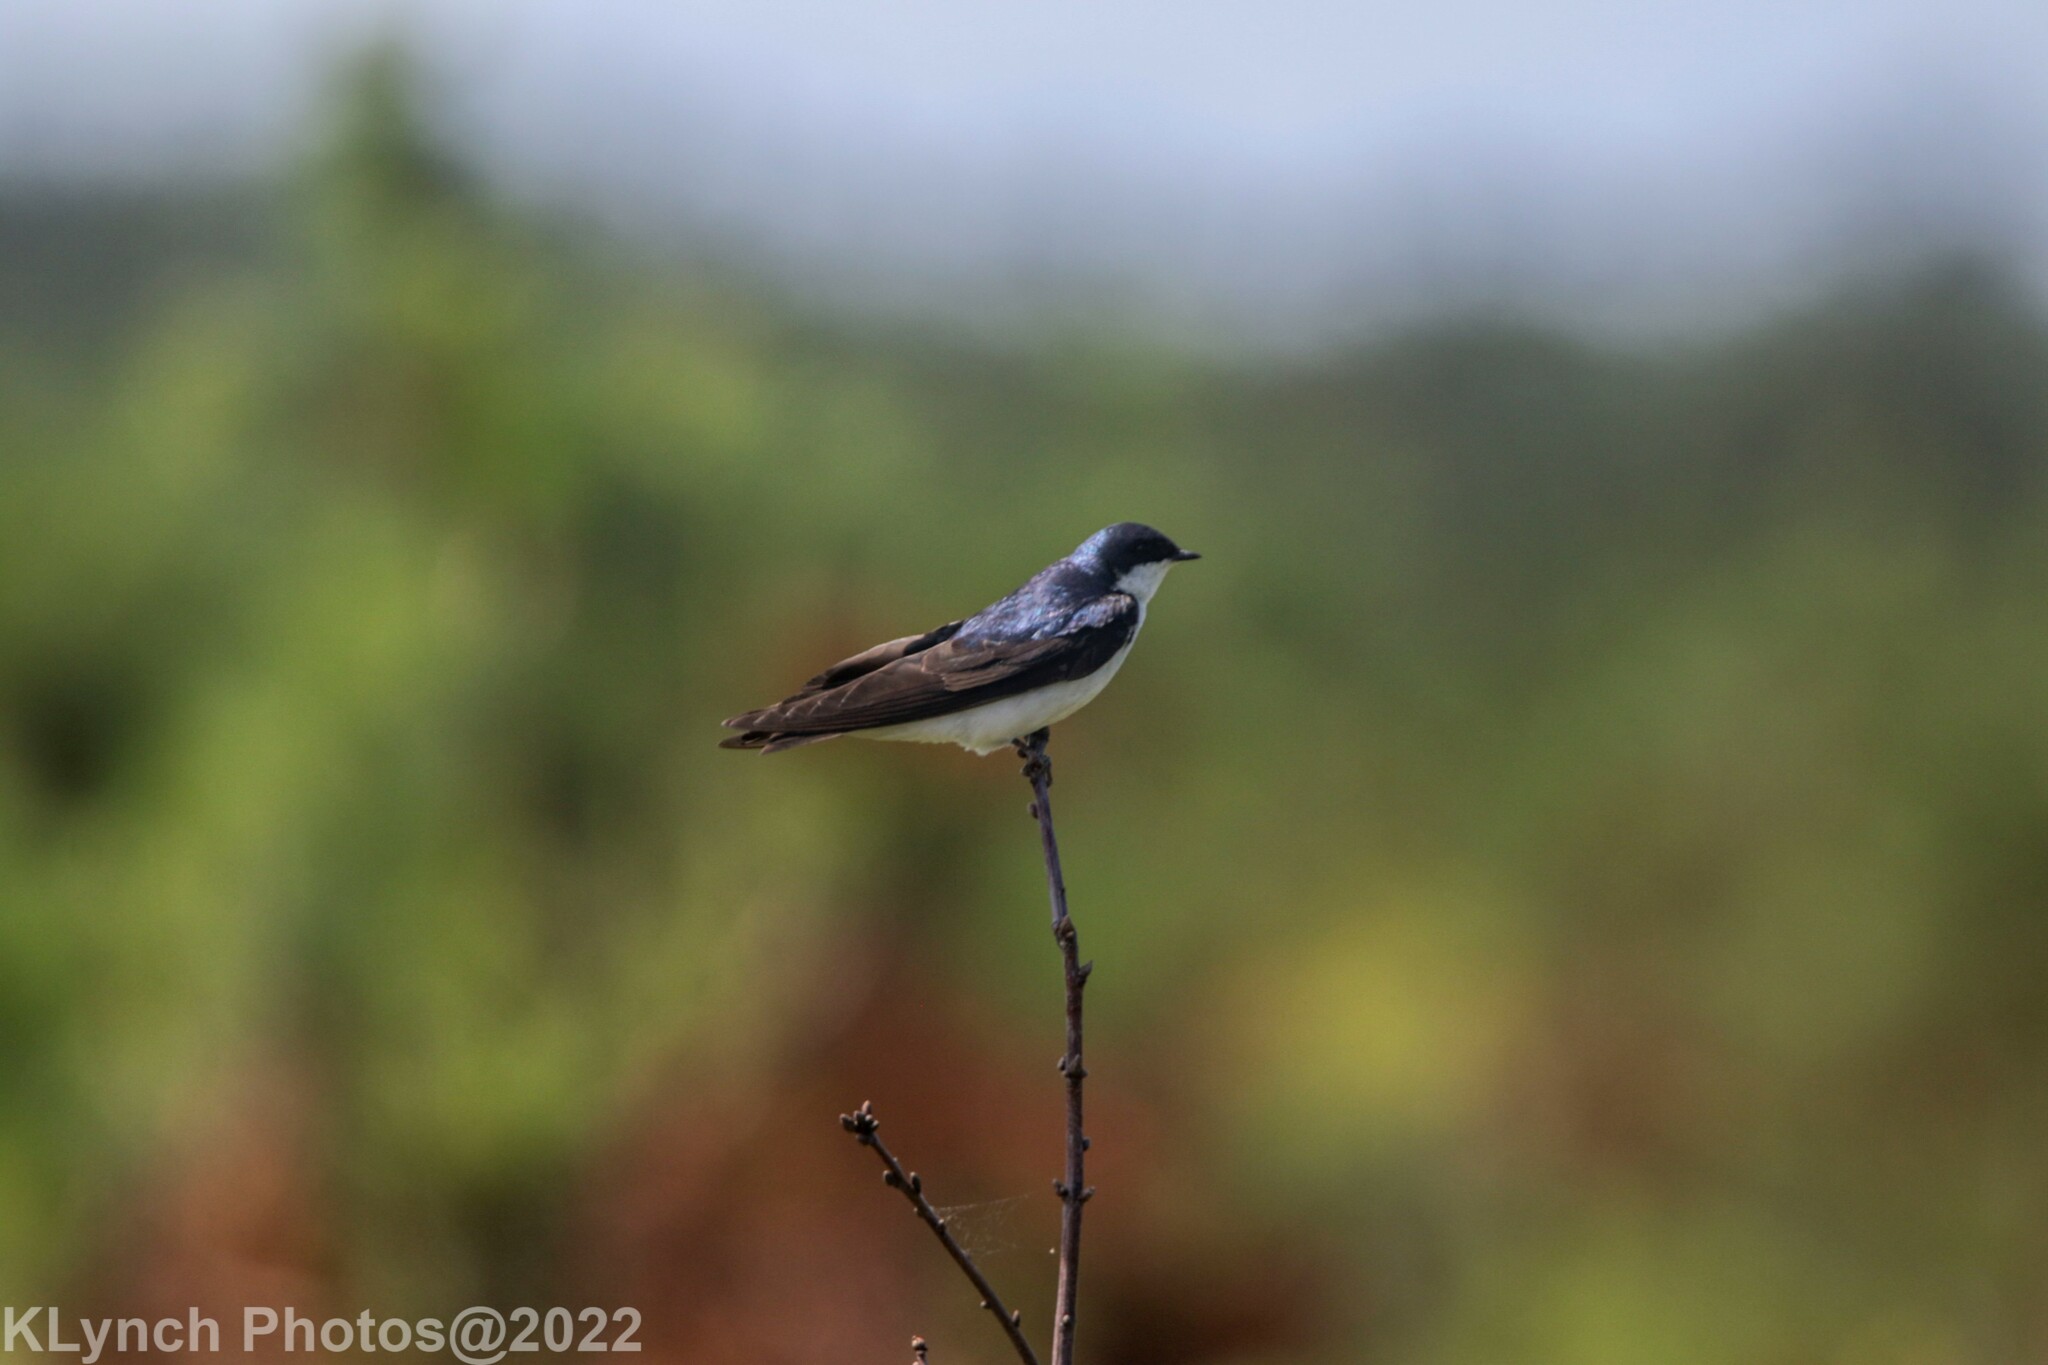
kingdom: Animalia
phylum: Chordata
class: Aves
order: Passeriformes
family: Hirundinidae
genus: Tachycineta
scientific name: Tachycineta bicolor
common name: Tree swallow
